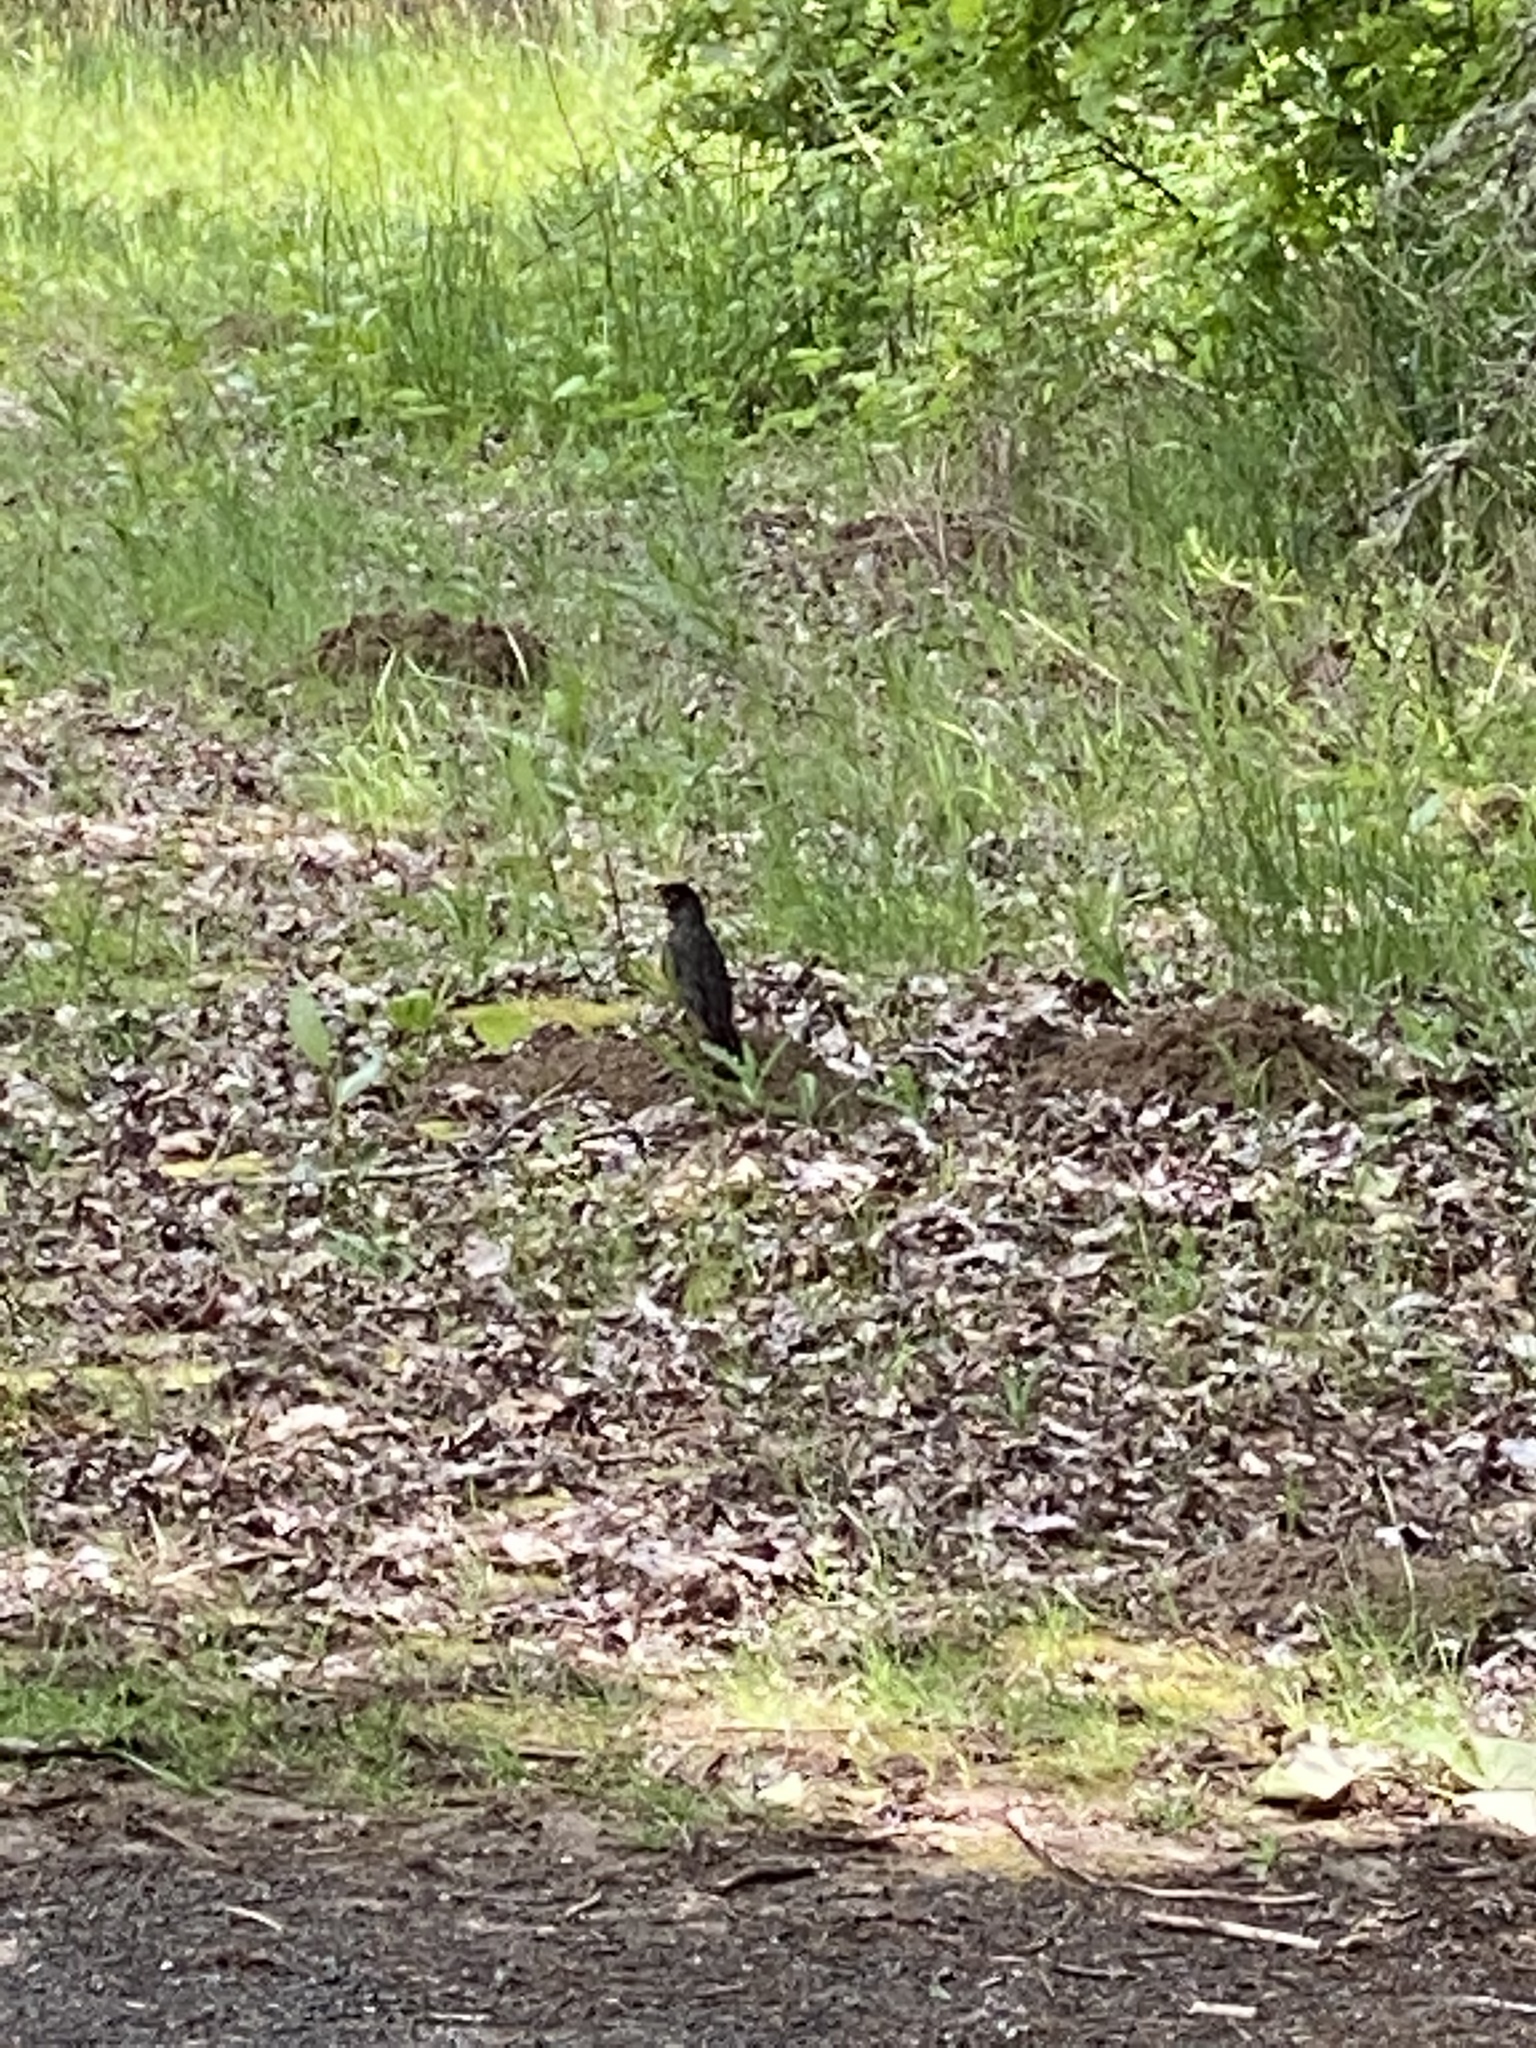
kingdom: Animalia
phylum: Chordata
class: Aves
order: Passeriformes
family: Turdidae
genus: Turdus
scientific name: Turdus migratorius
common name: American robin
